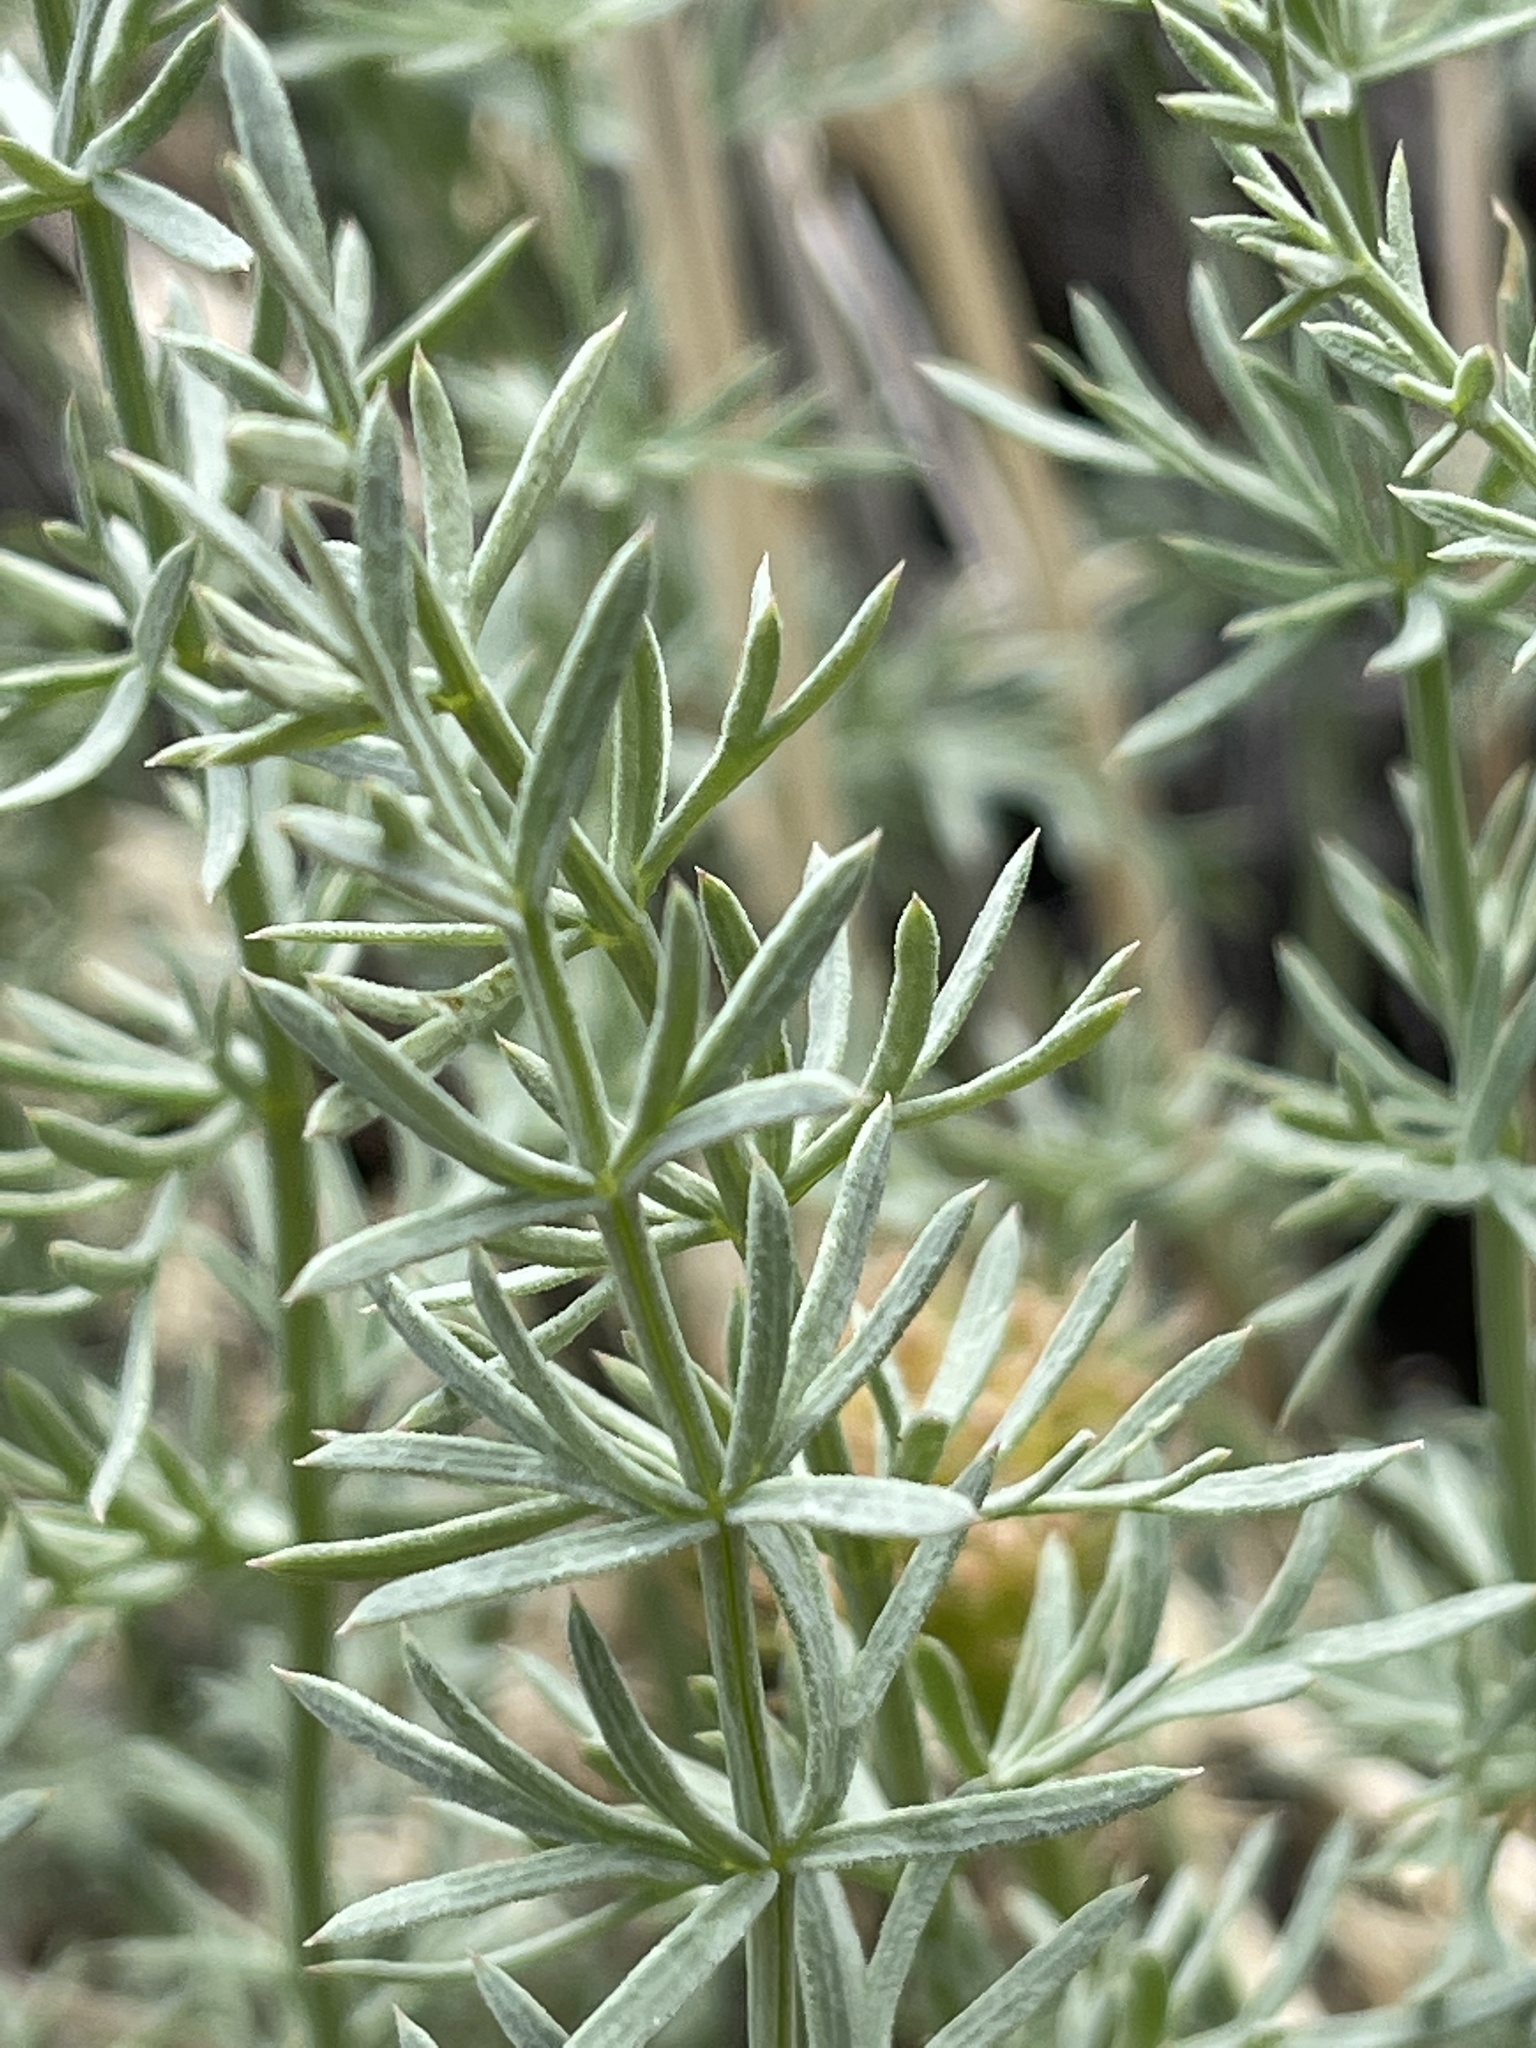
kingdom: Plantae
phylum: Tracheophyta
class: Magnoliopsida
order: Apiales
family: Apiaceae
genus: Lomatium
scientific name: Lomatium parryi
